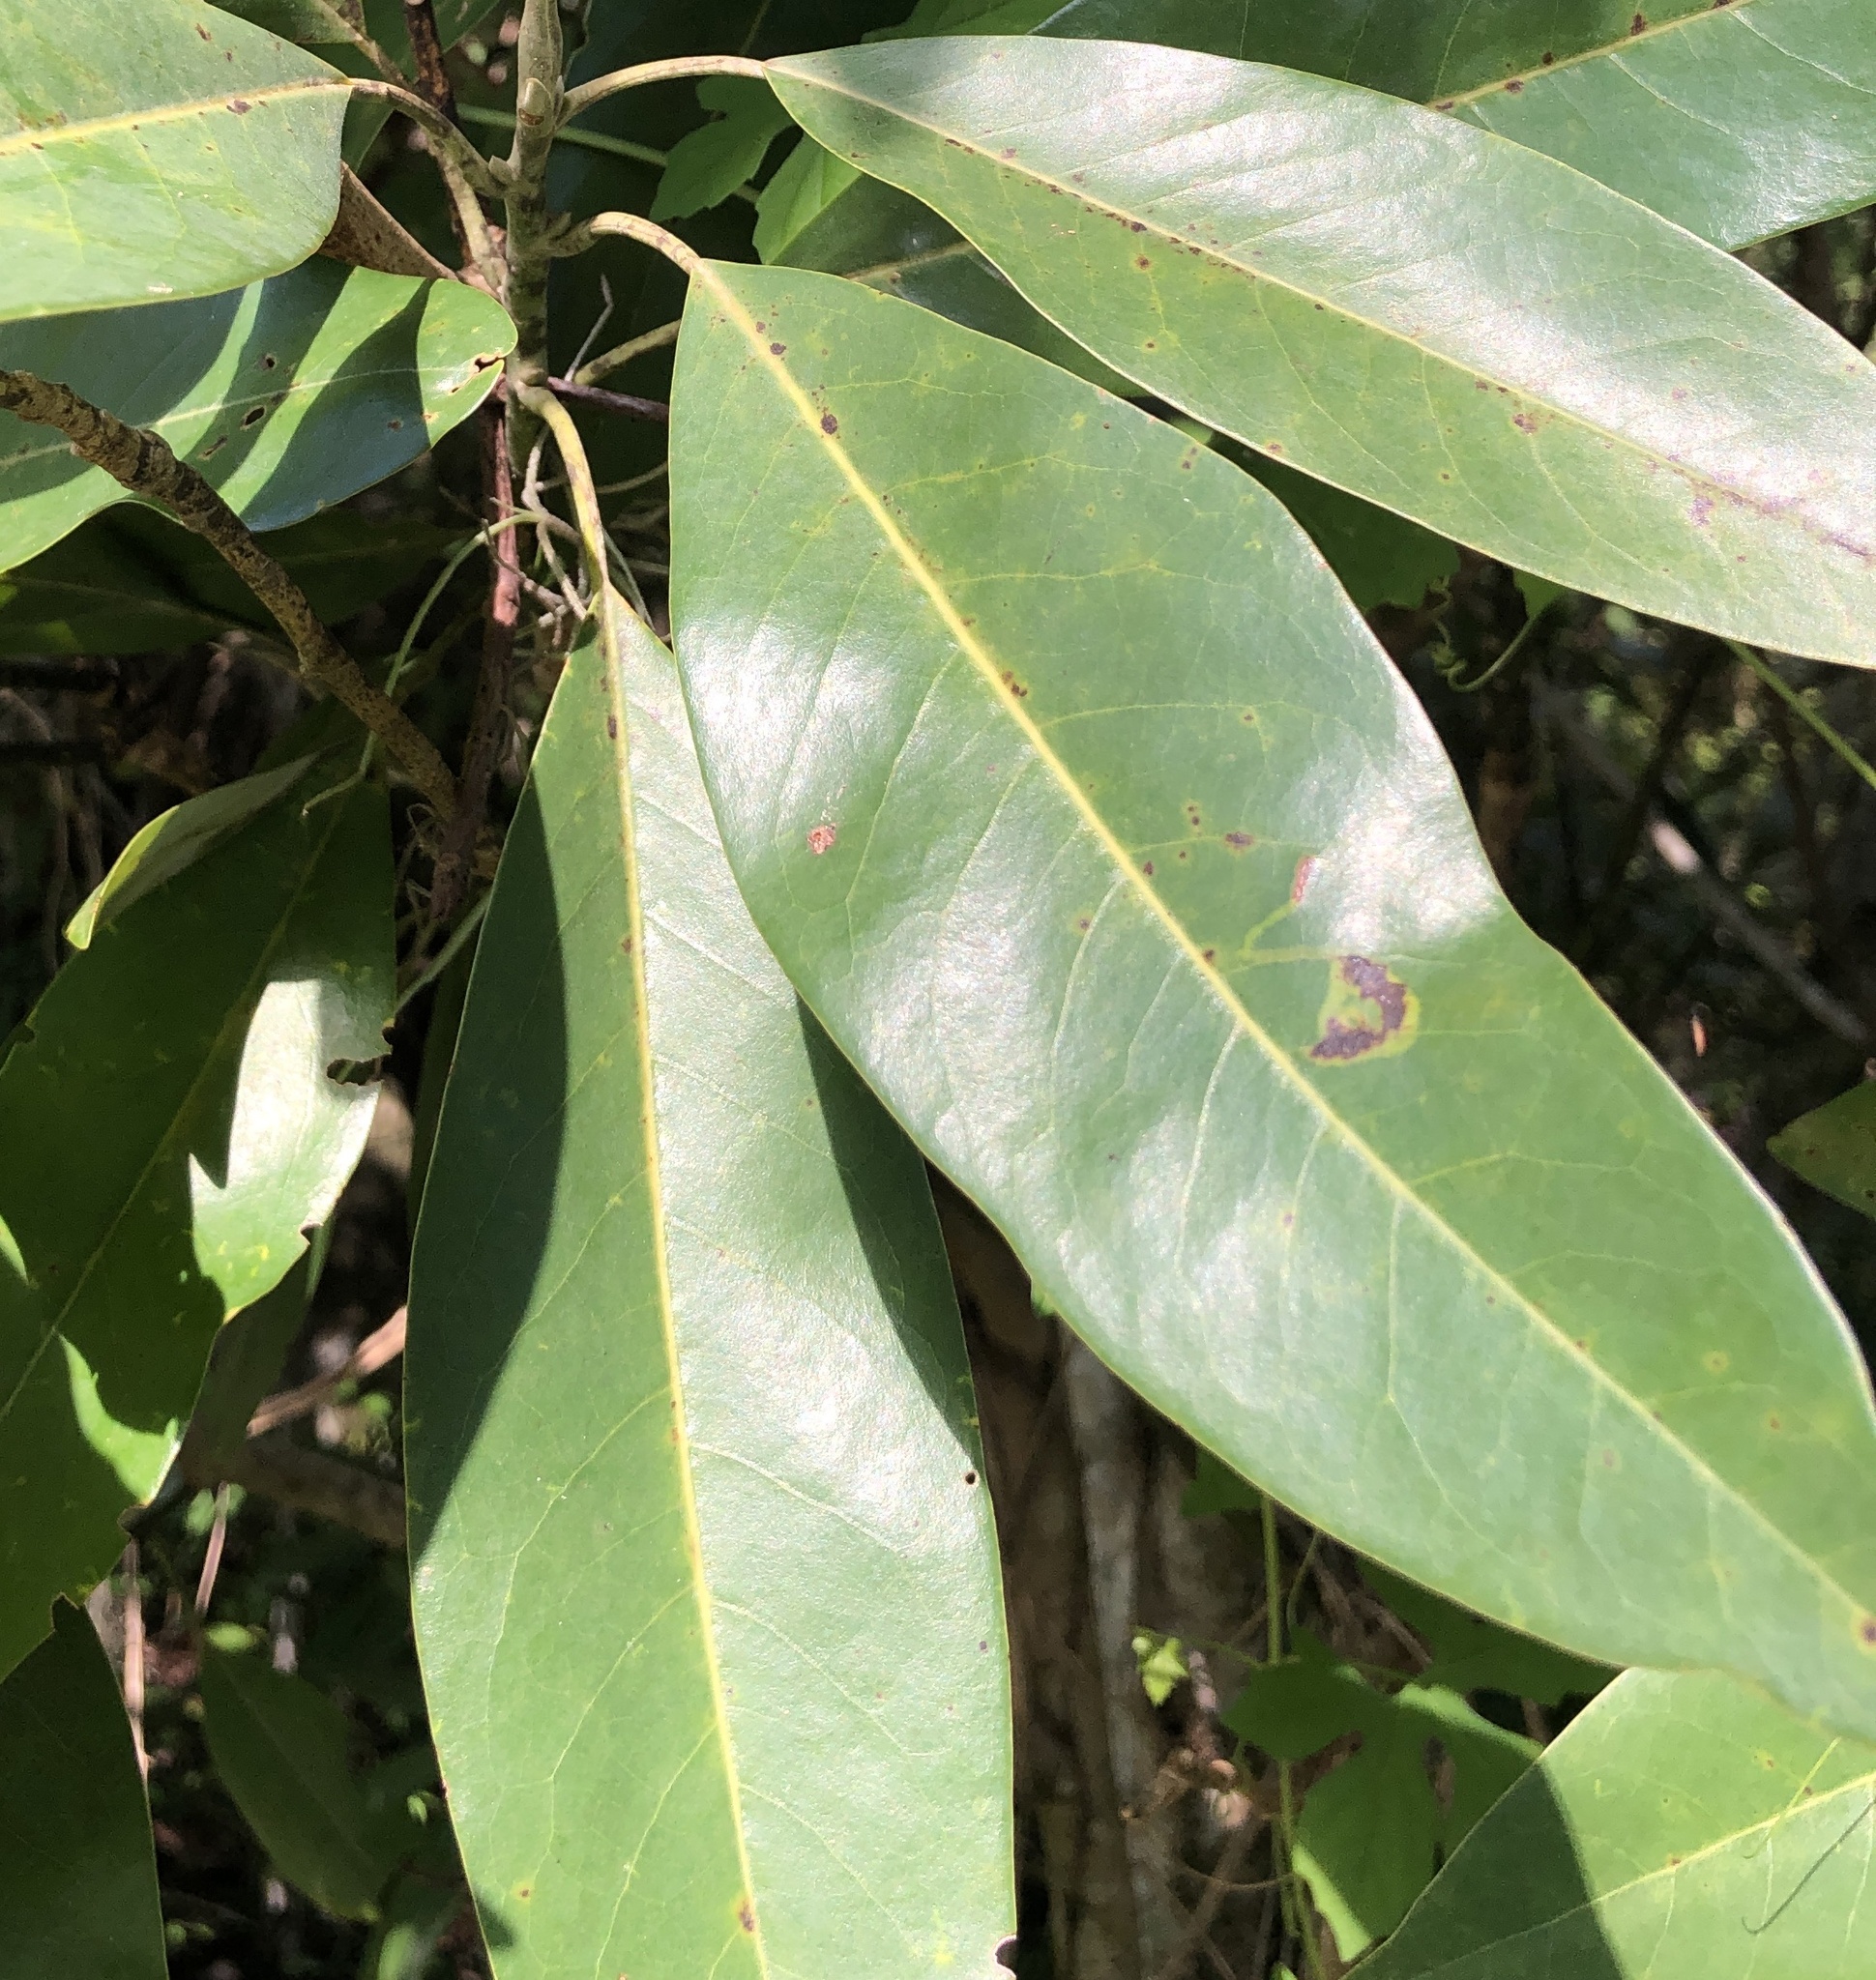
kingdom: Plantae
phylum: Tracheophyta
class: Magnoliopsida
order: Magnoliales
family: Magnoliaceae
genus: Magnolia
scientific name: Magnolia virginiana
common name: Swamp bay
